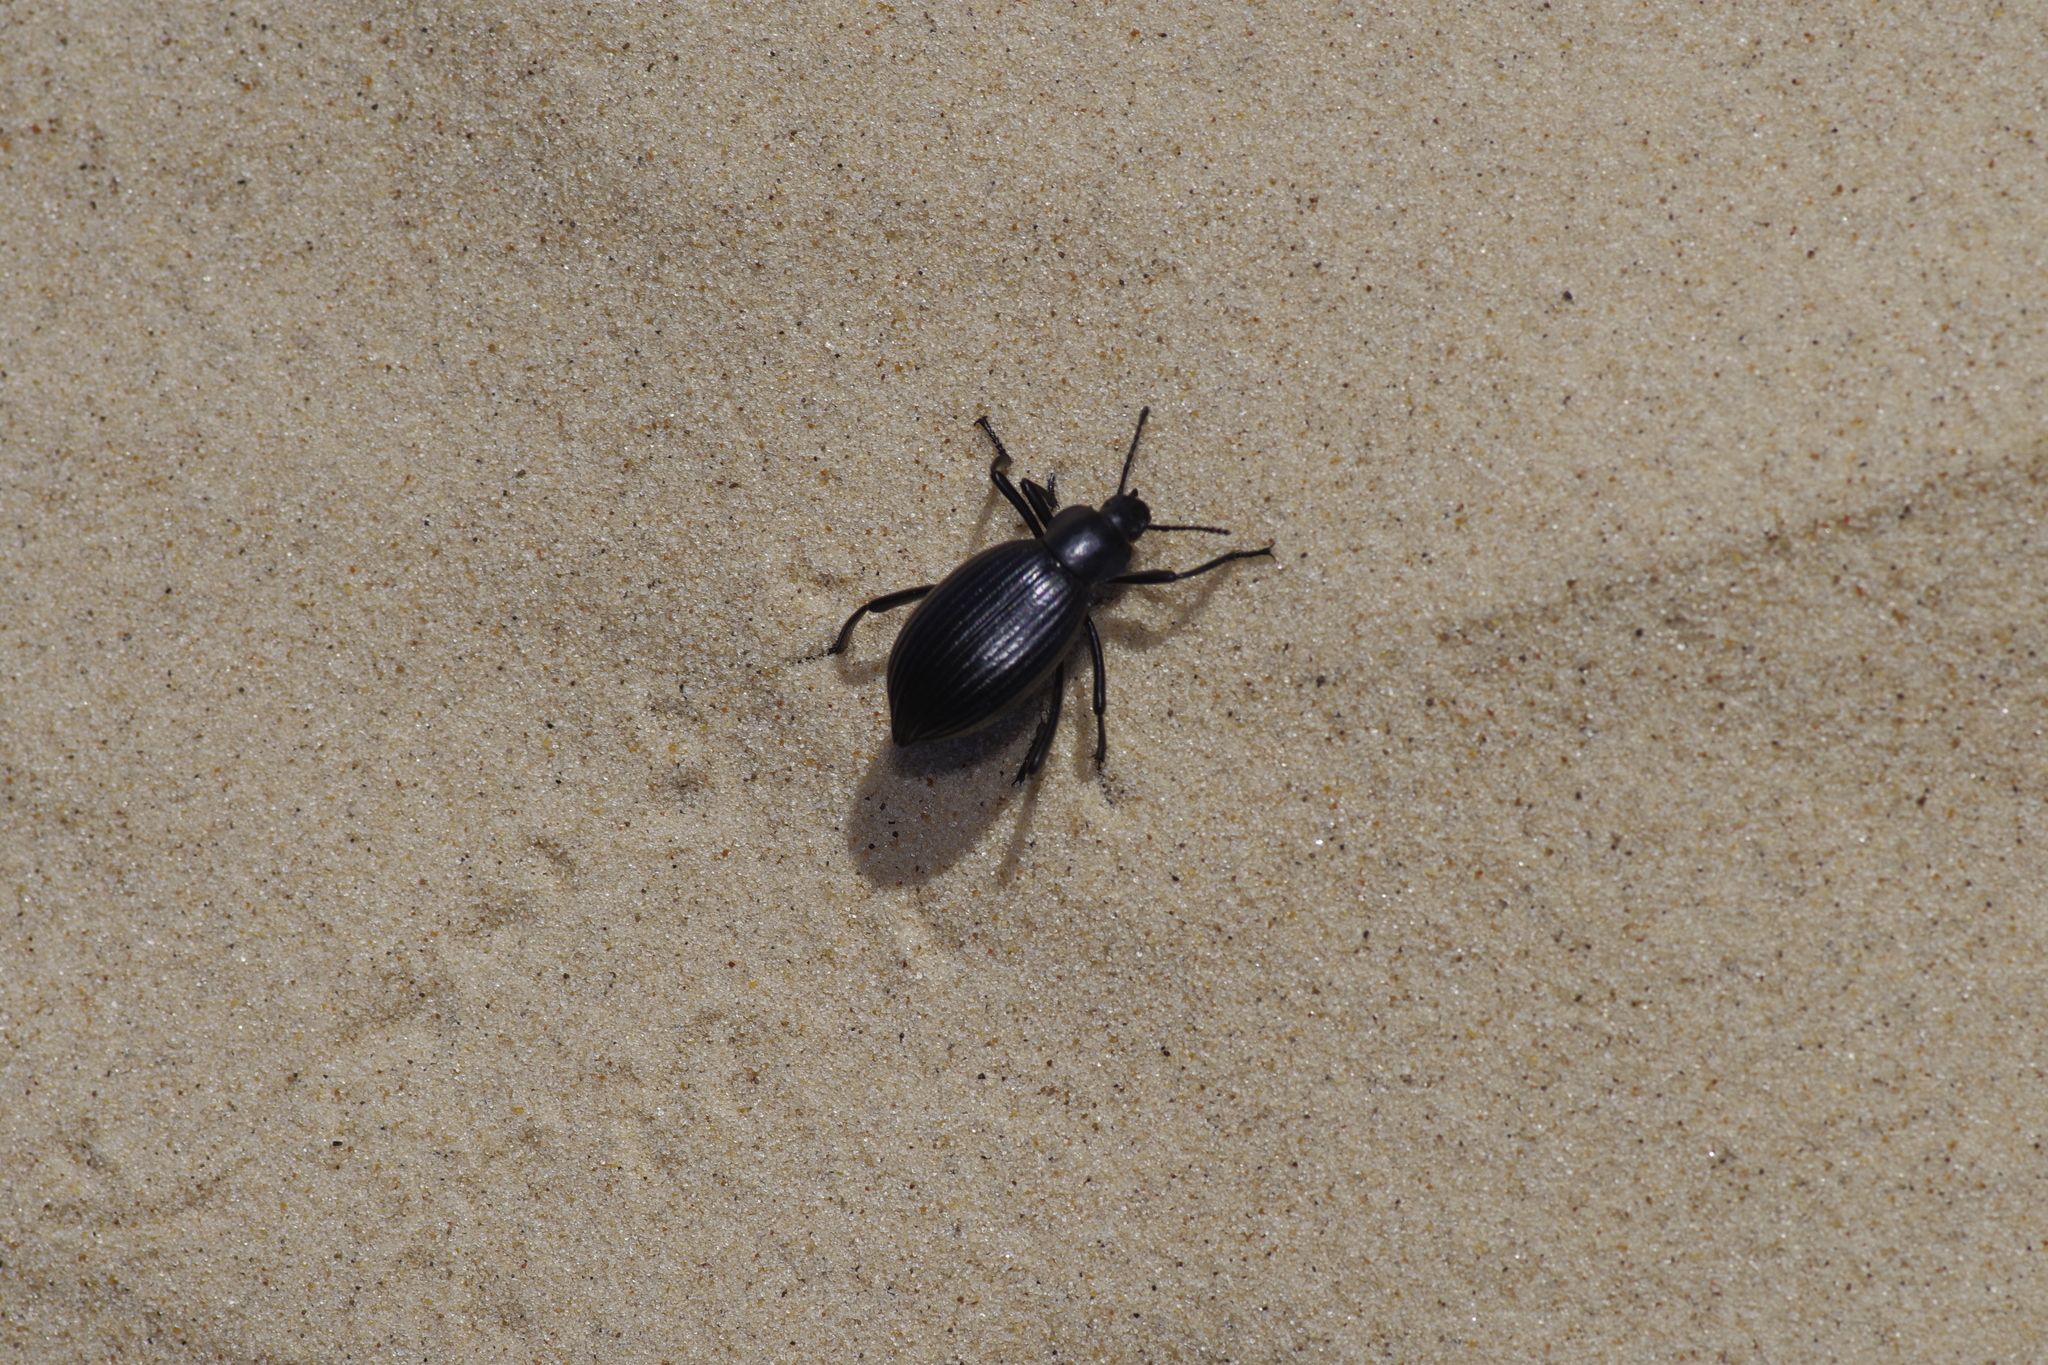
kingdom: Animalia
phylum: Arthropoda
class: Insecta
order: Coleoptera
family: Tenebrionidae
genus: Eleodes
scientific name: Eleodes hispilabris
